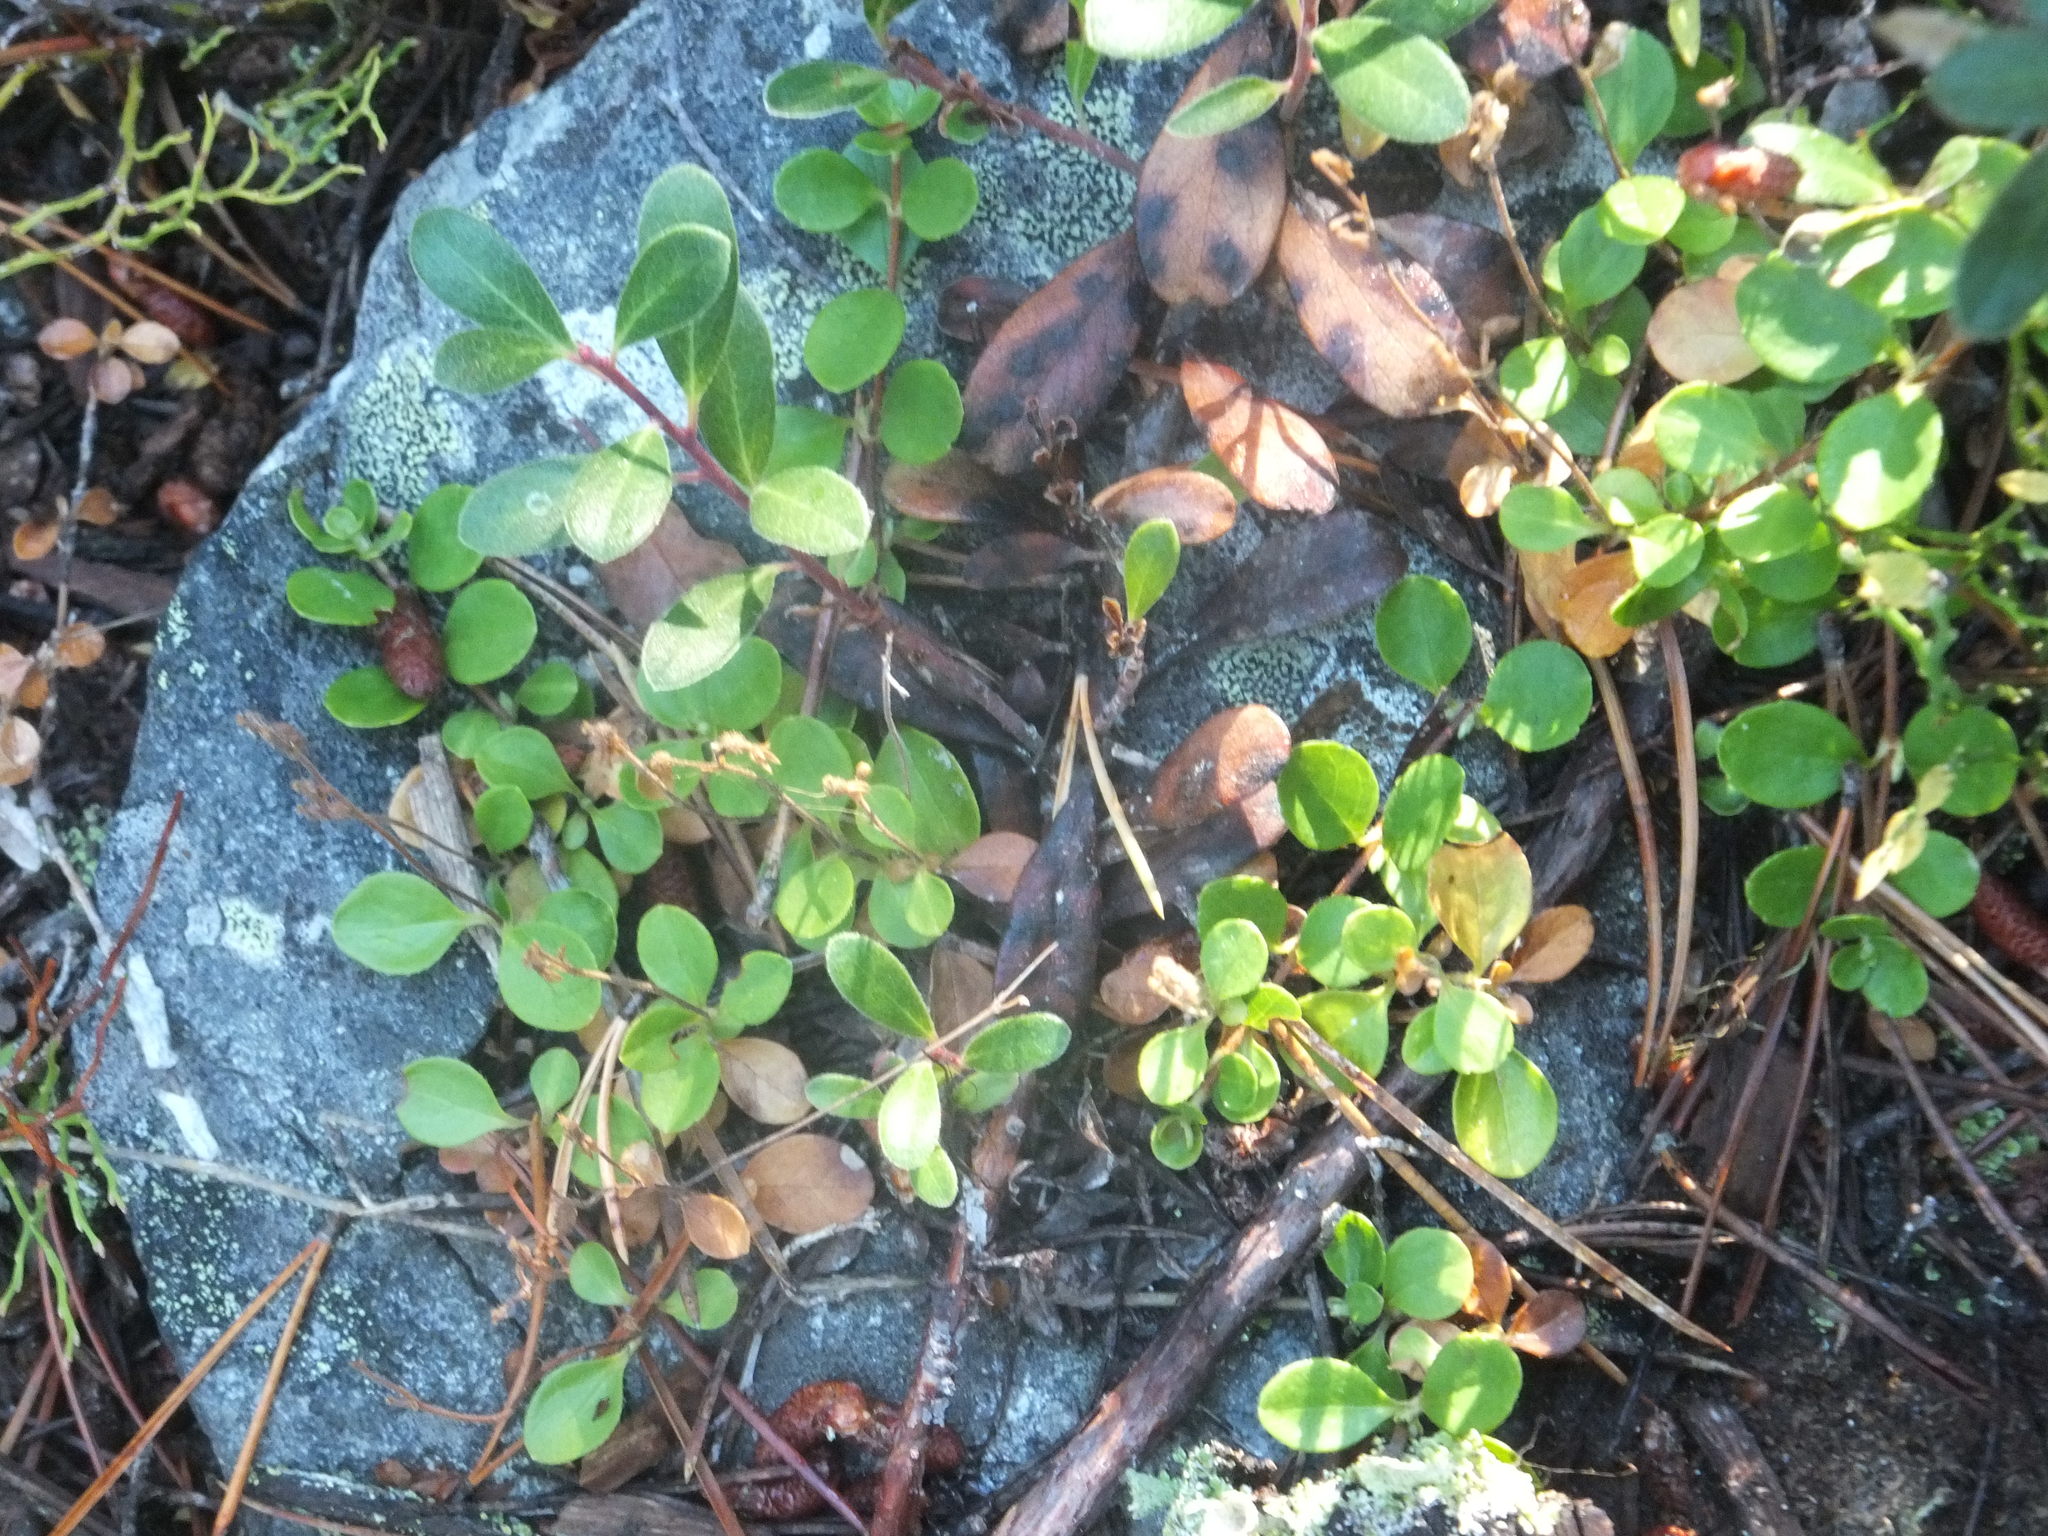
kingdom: Plantae
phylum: Tracheophyta
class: Magnoliopsida
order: Dipsacales
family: Caprifoliaceae
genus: Linnaea
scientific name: Linnaea borealis
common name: Twinflower
